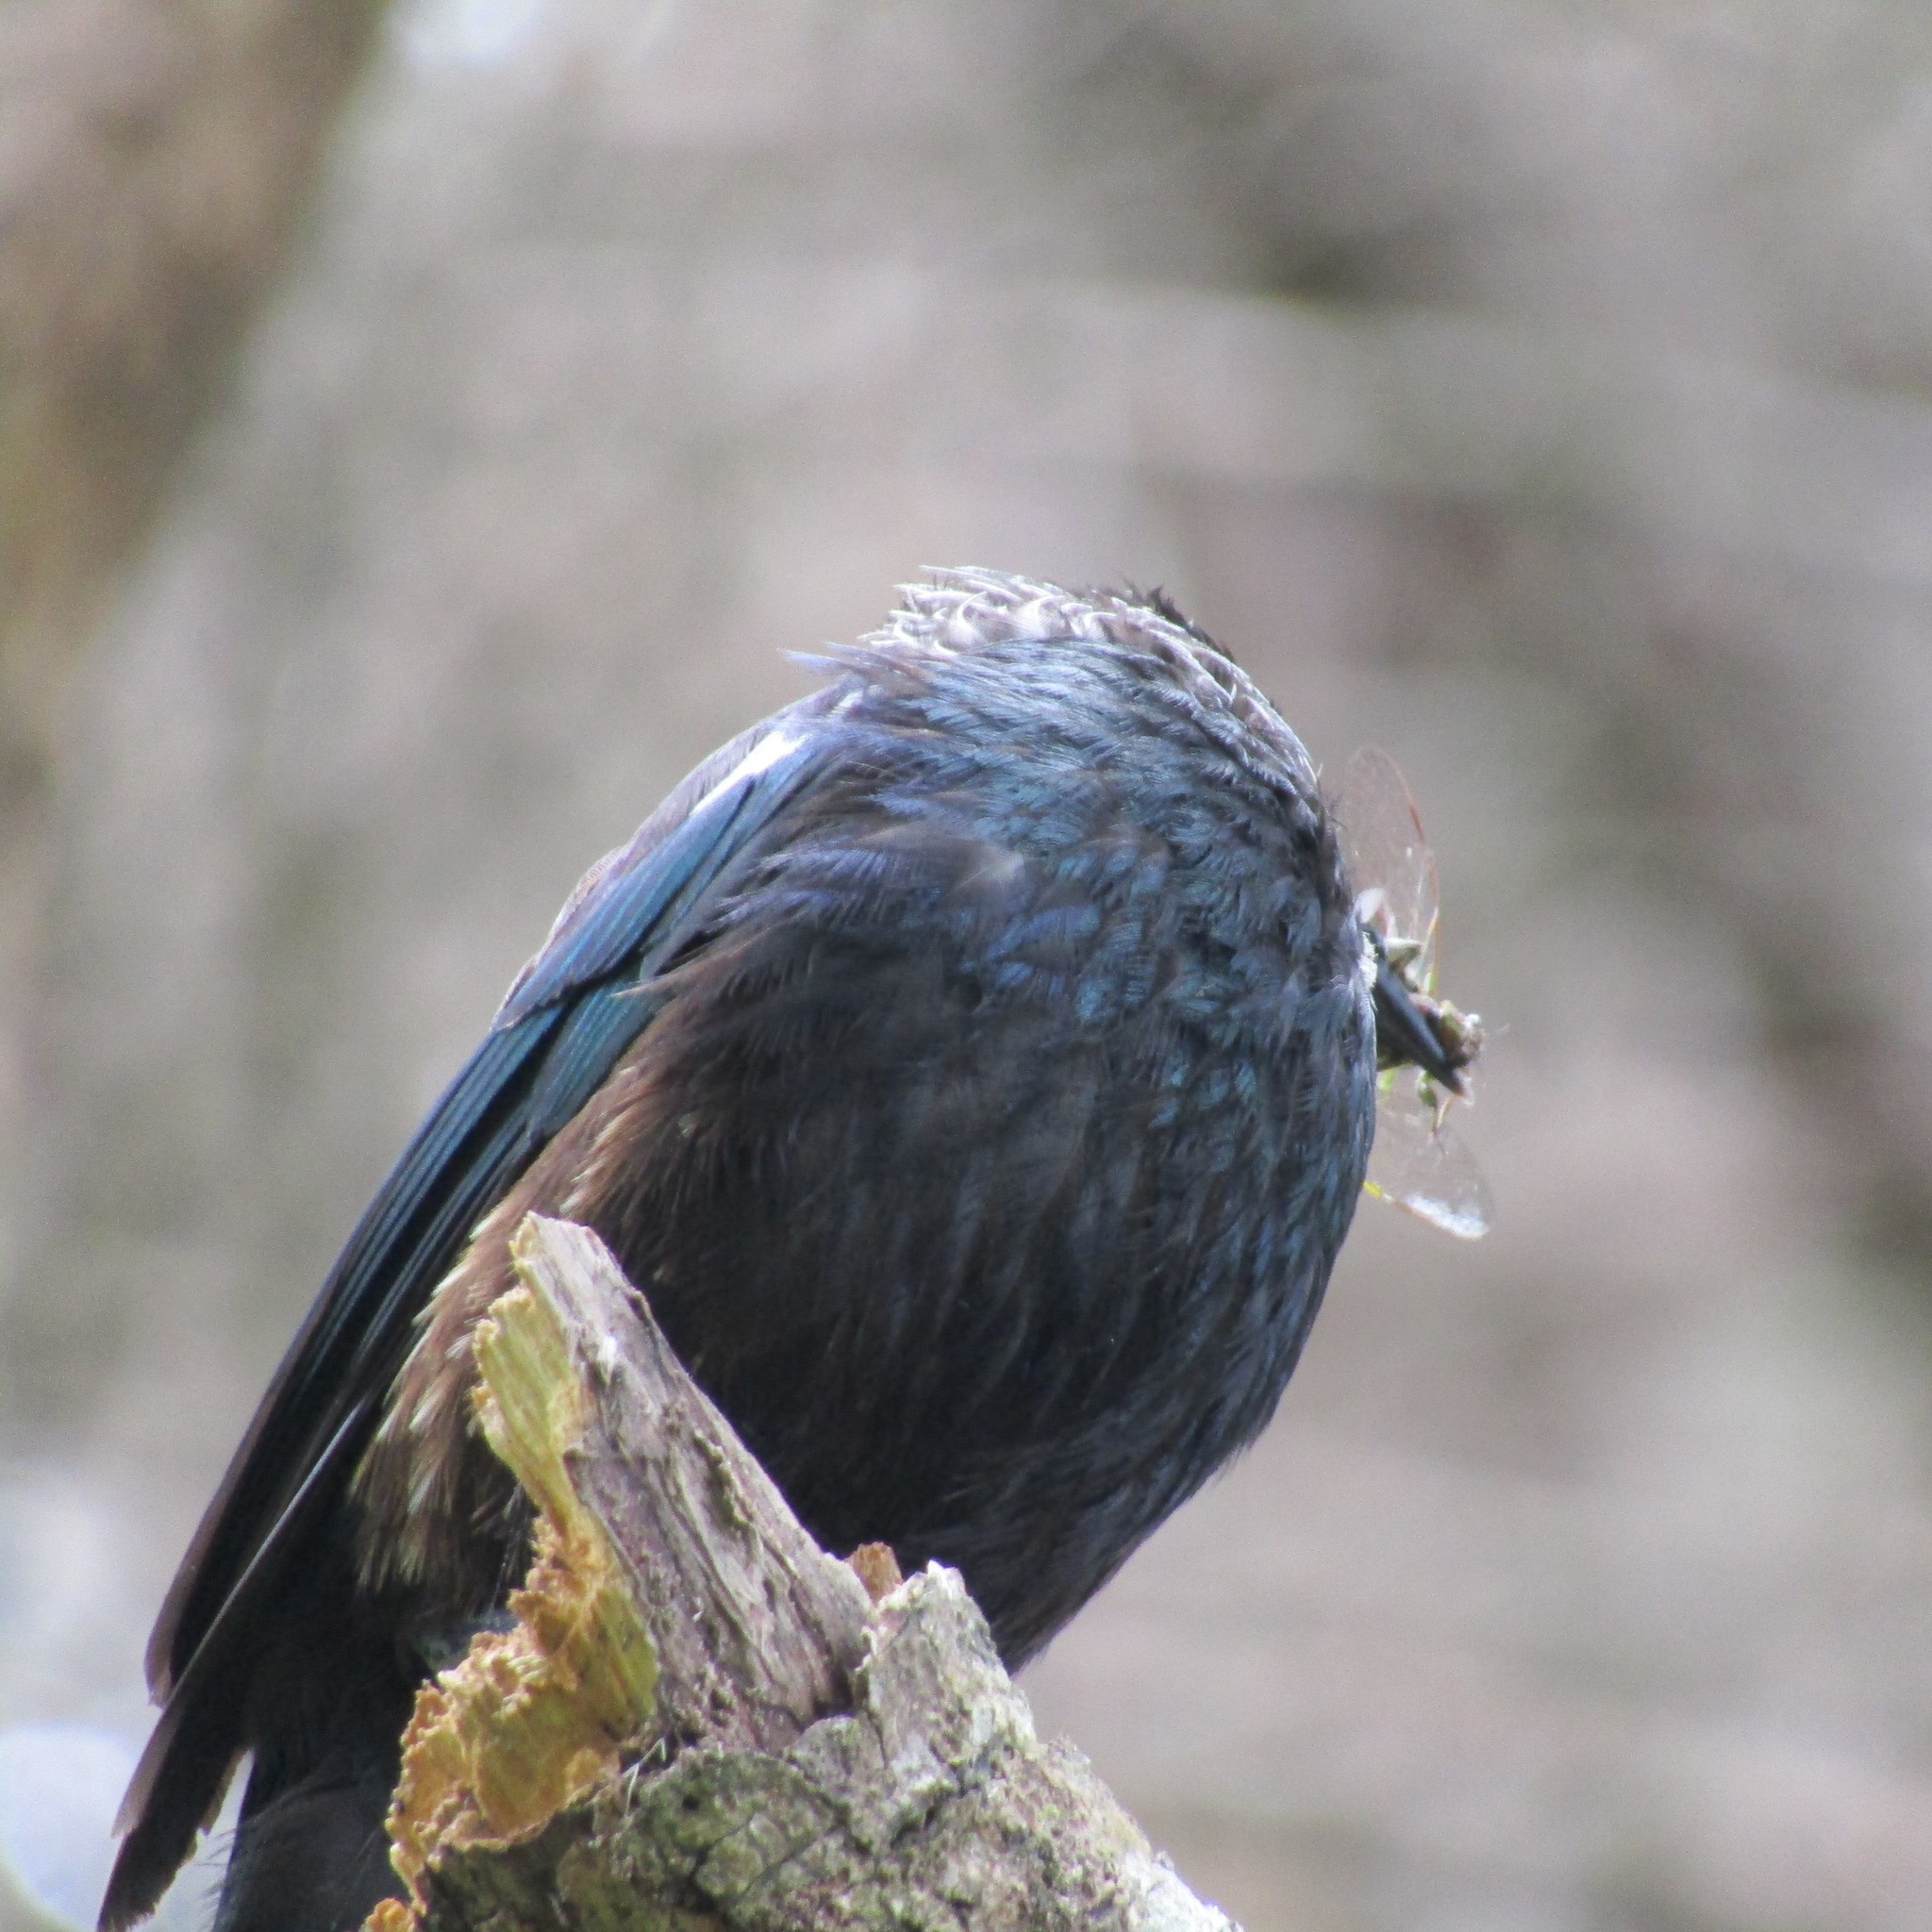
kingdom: Animalia
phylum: Chordata
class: Aves
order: Passeriformes
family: Meliphagidae
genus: Prosthemadera
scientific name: Prosthemadera novaeseelandiae
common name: Tui
